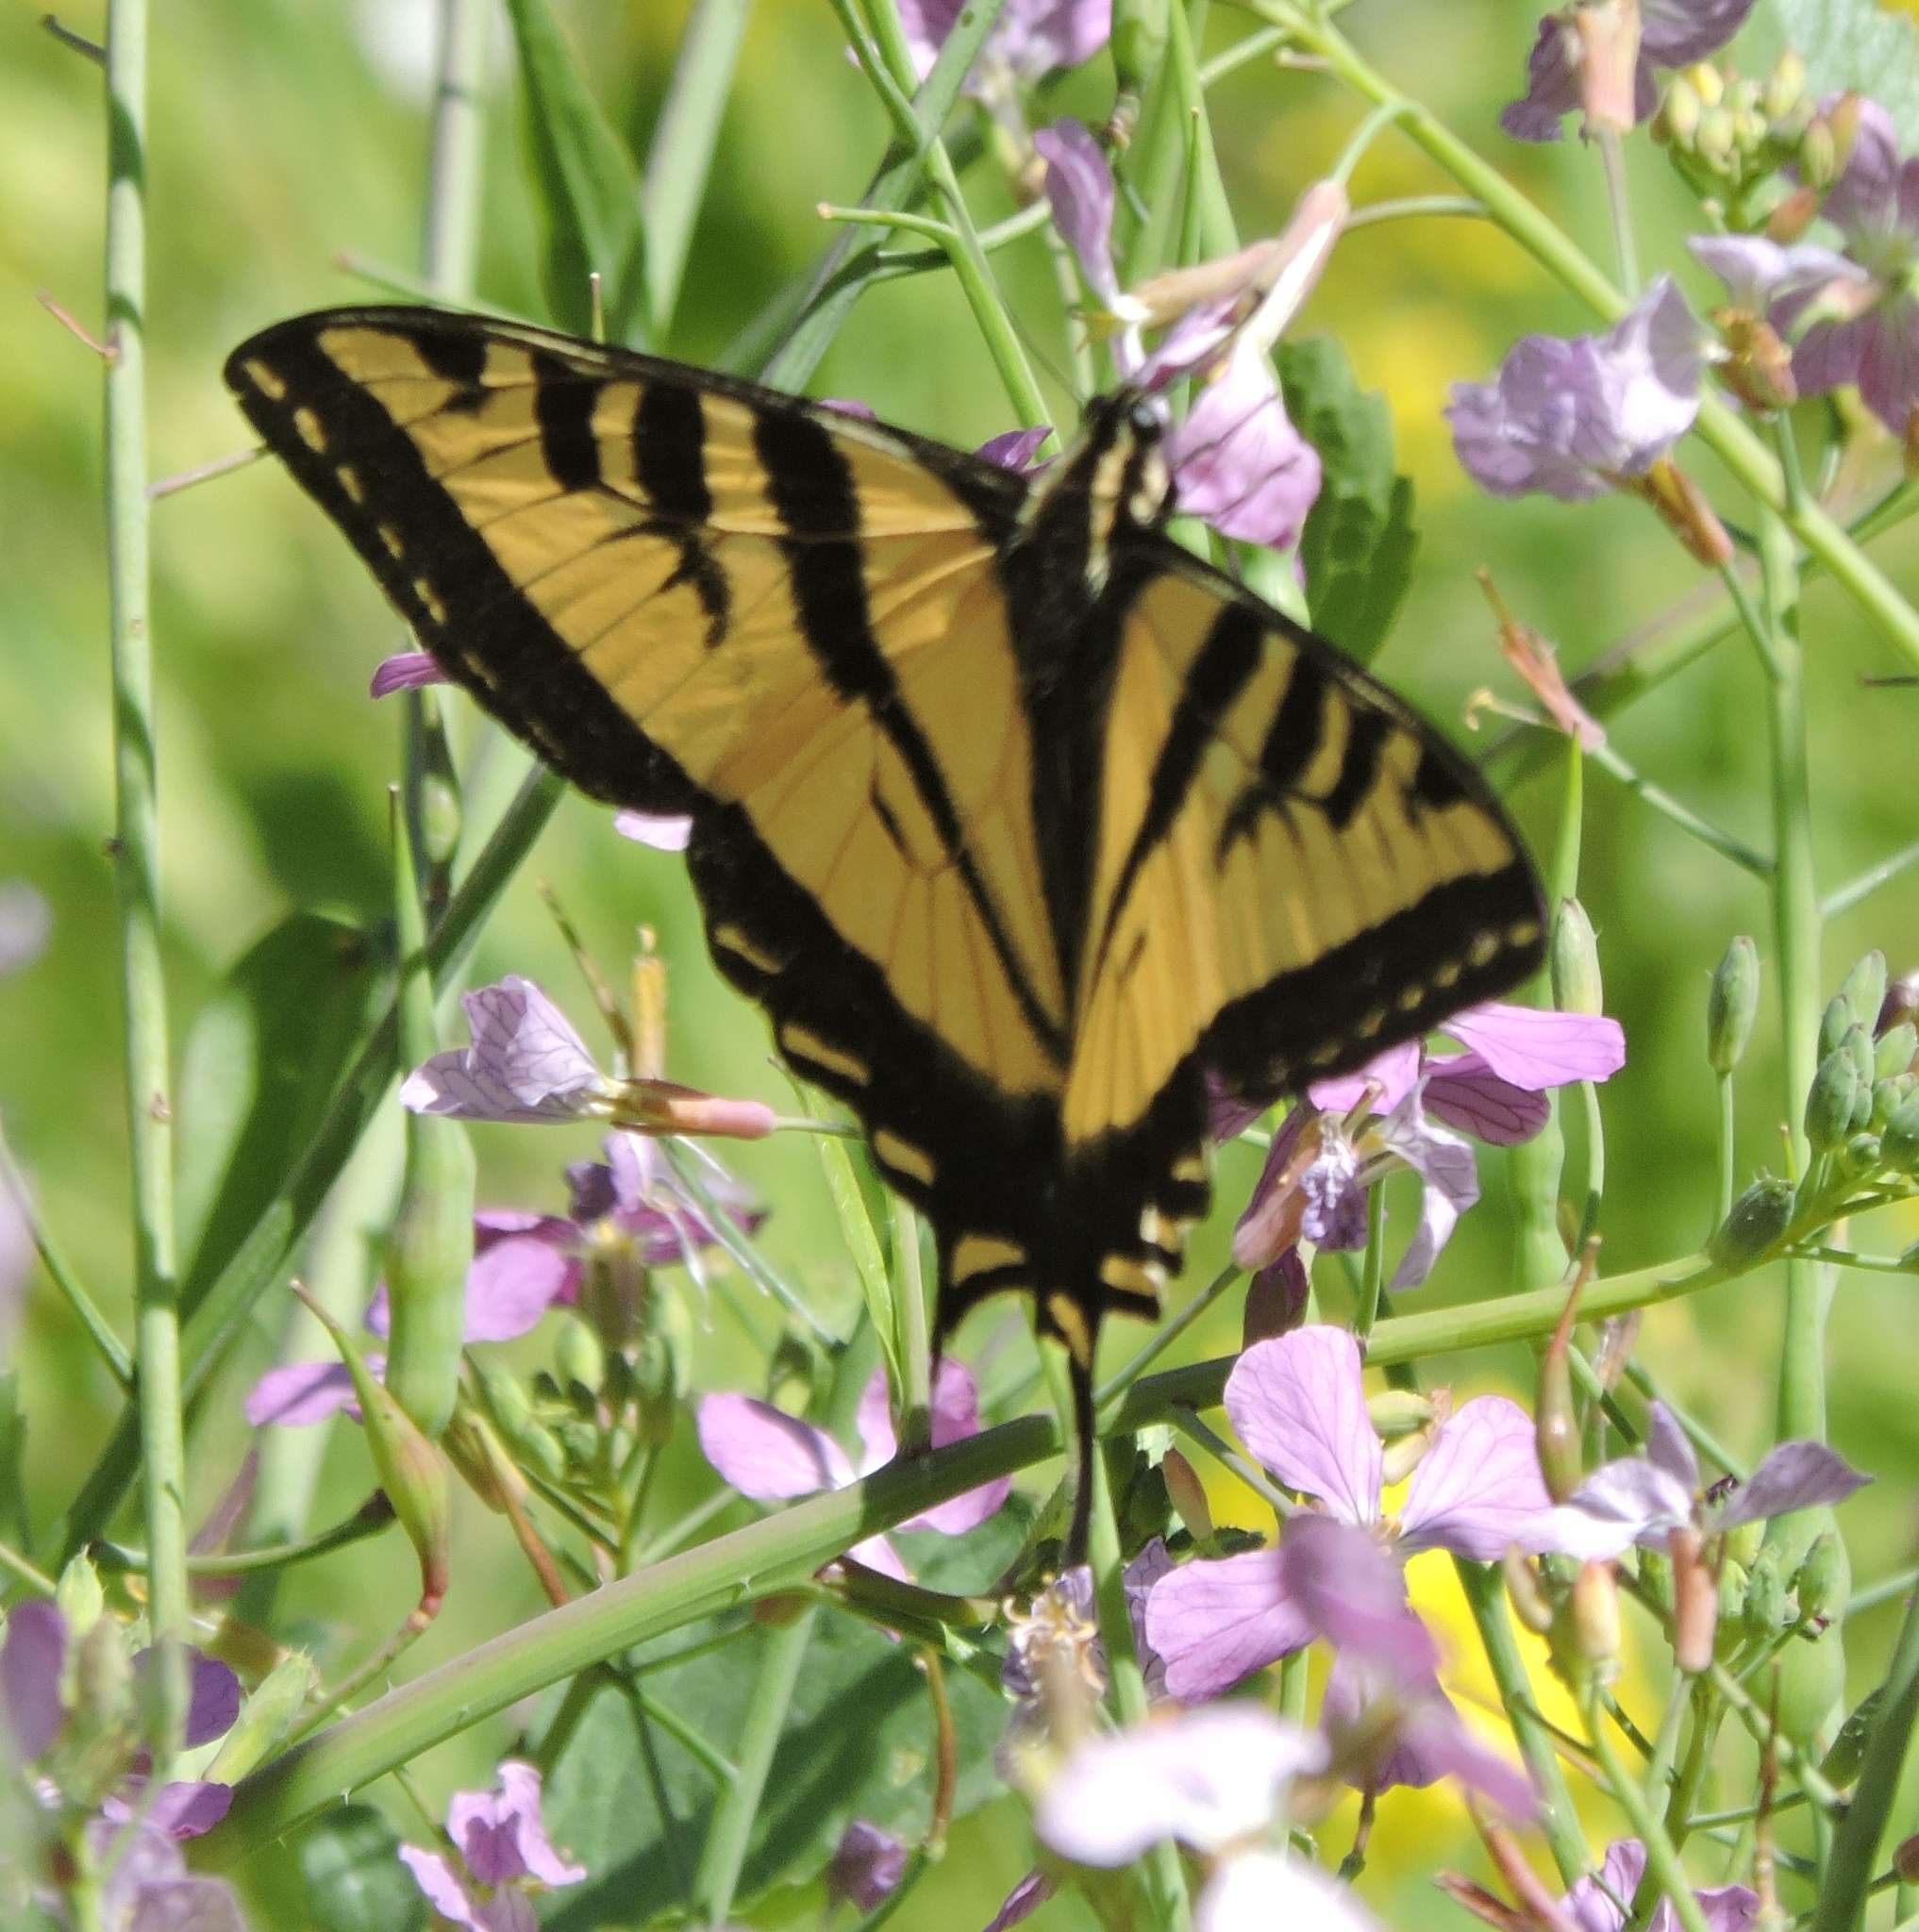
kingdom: Animalia
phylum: Arthropoda
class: Insecta
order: Lepidoptera
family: Papilionidae
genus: Papilio
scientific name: Papilio rutulus
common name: Western tiger swallowtail
